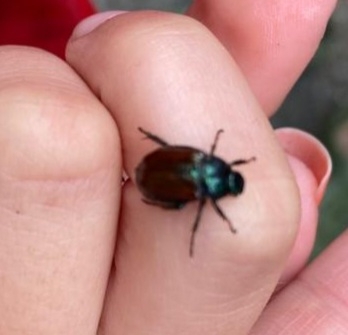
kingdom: Animalia
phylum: Arthropoda
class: Insecta
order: Coleoptera
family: Scarabaeidae
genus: Phyllopertha
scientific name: Phyllopertha horticola
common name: Garden chafer
